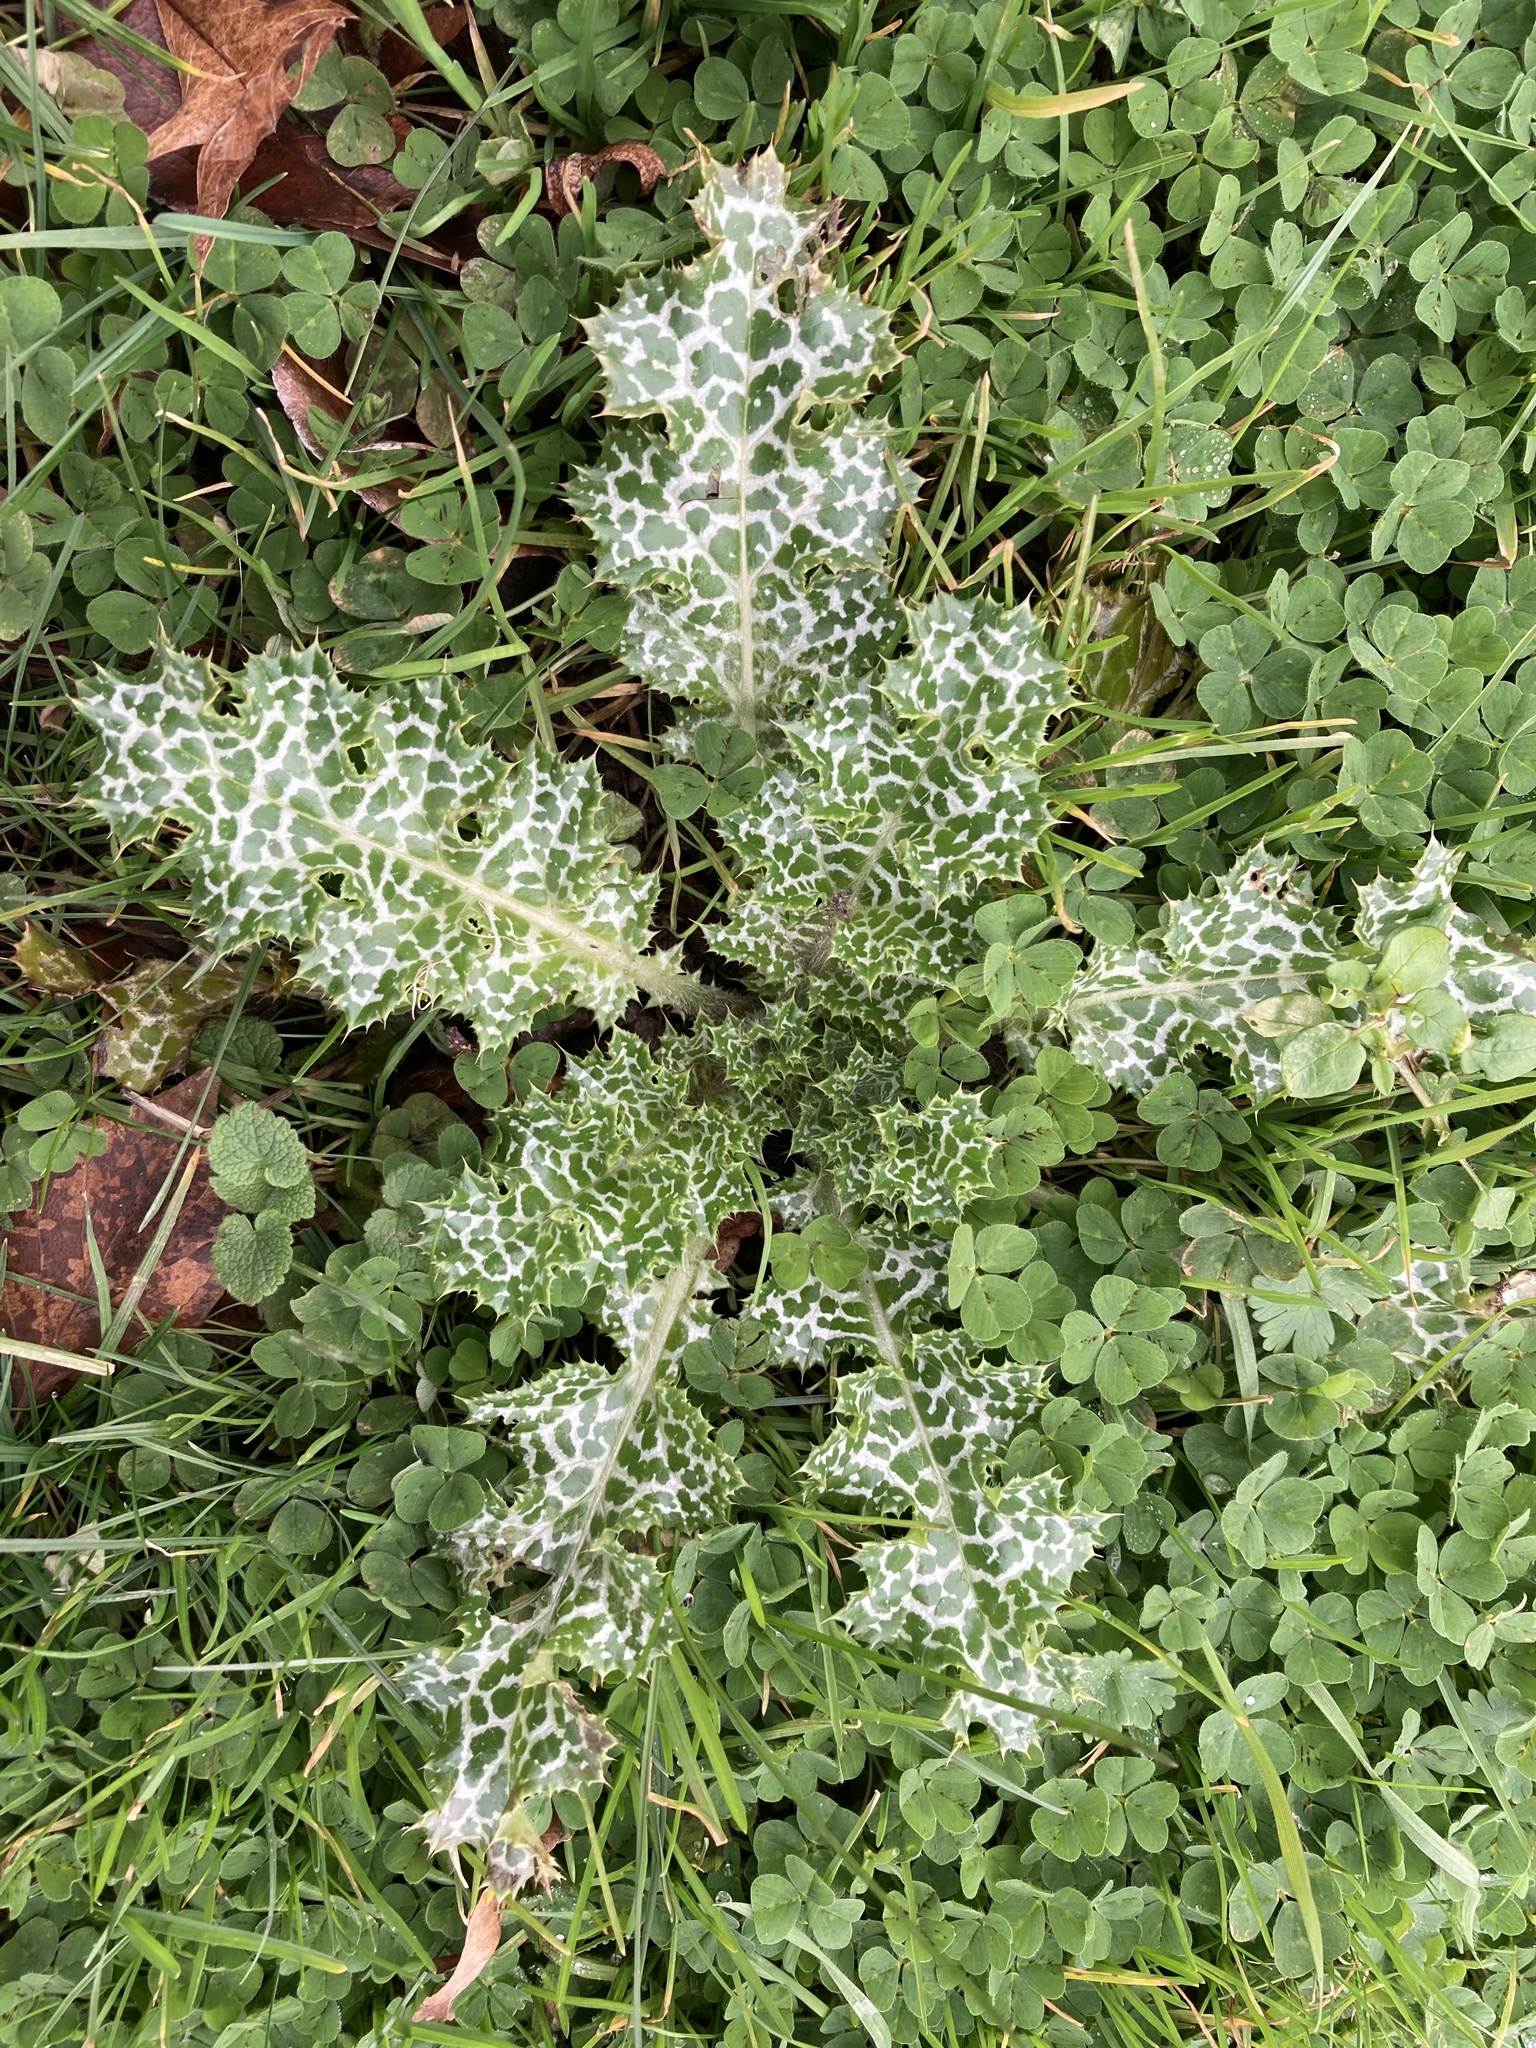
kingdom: Plantae
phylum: Tracheophyta
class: Magnoliopsida
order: Asterales
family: Asteraceae
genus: Silybum
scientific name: Silybum marianum
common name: Milk thistle
